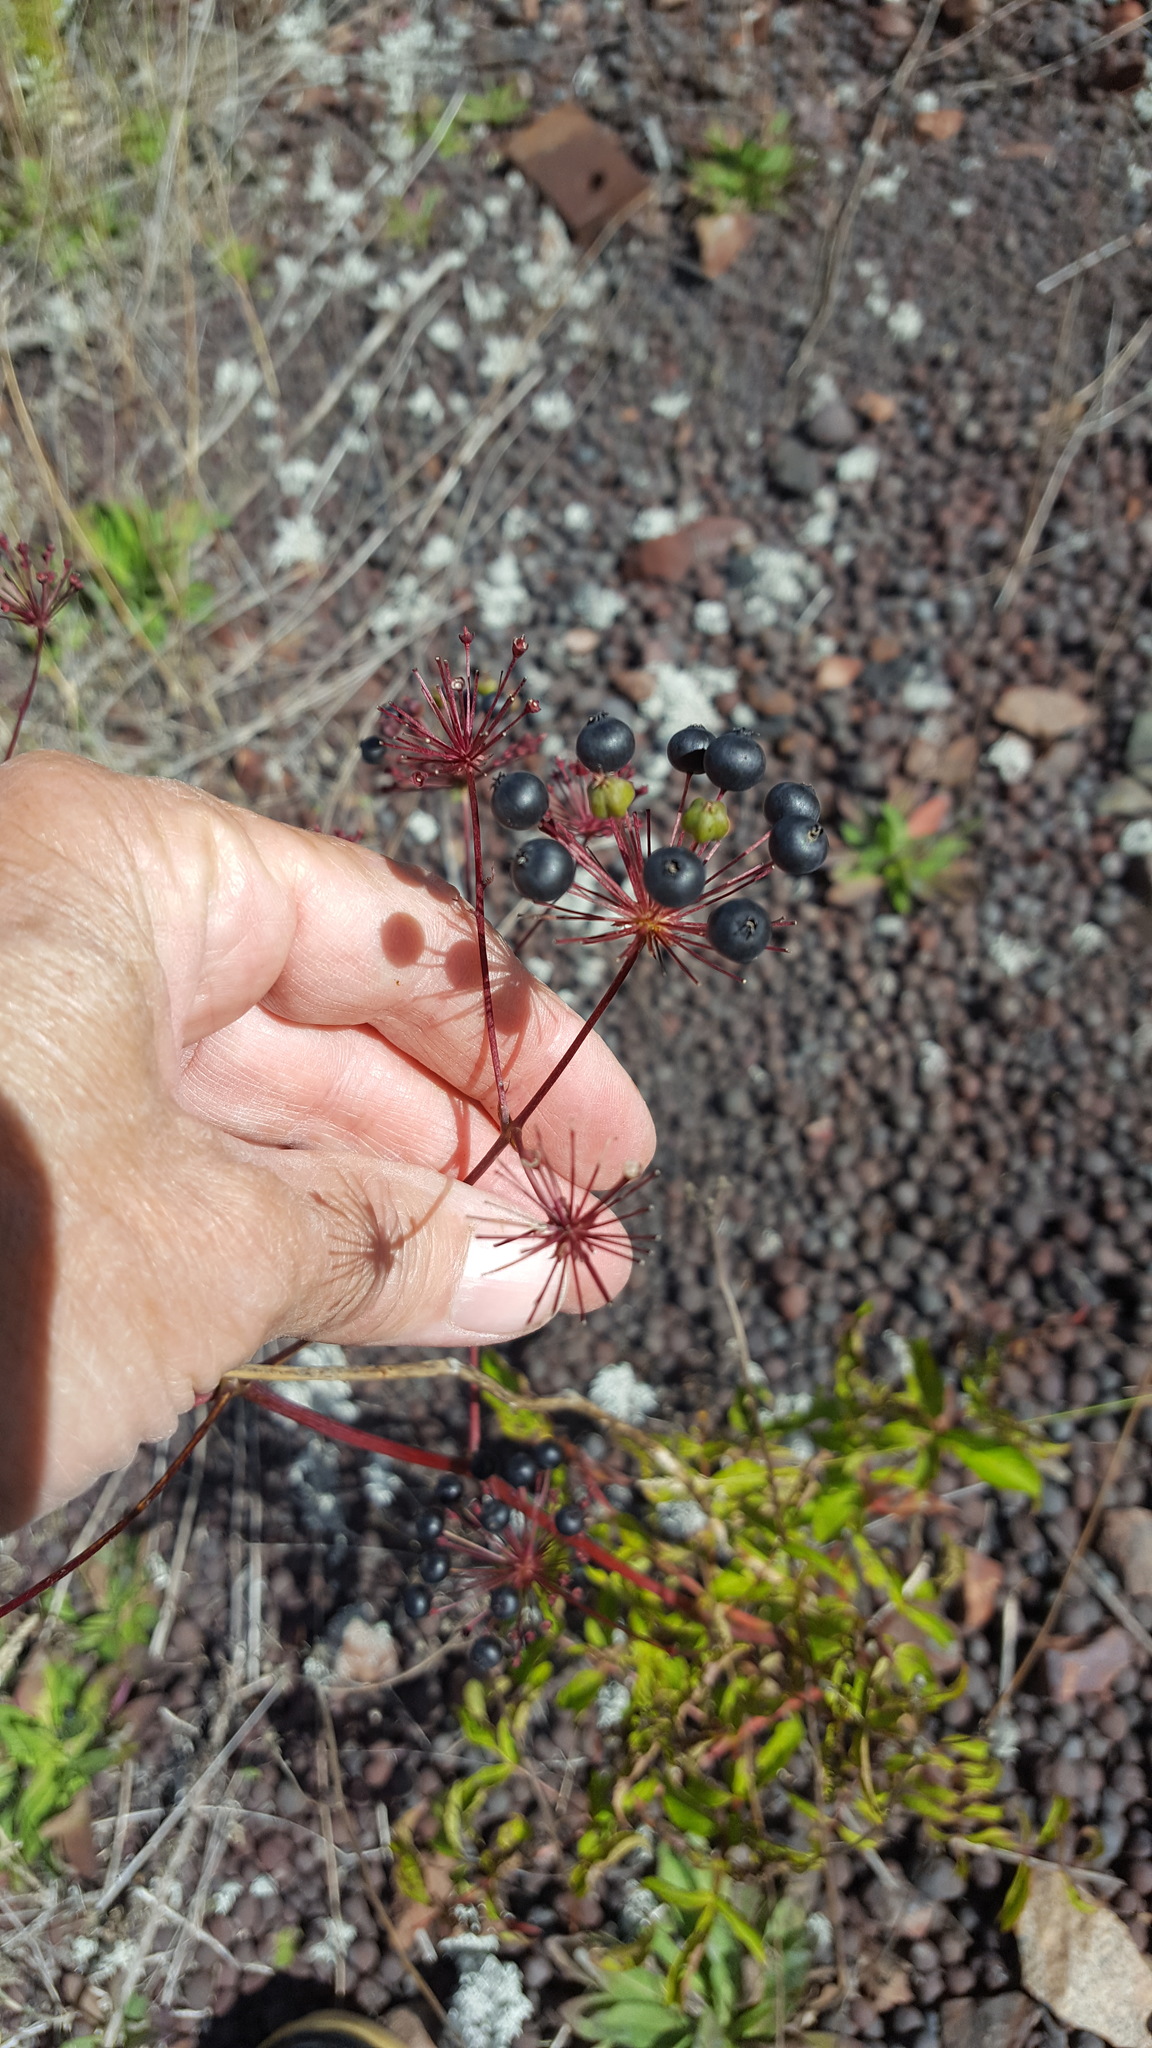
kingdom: Plantae
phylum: Tracheophyta
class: Magnoliopsida
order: Apiales
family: Araliaceae
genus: Aralia
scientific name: Aralia hispida
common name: Bristly sarsaparilla
